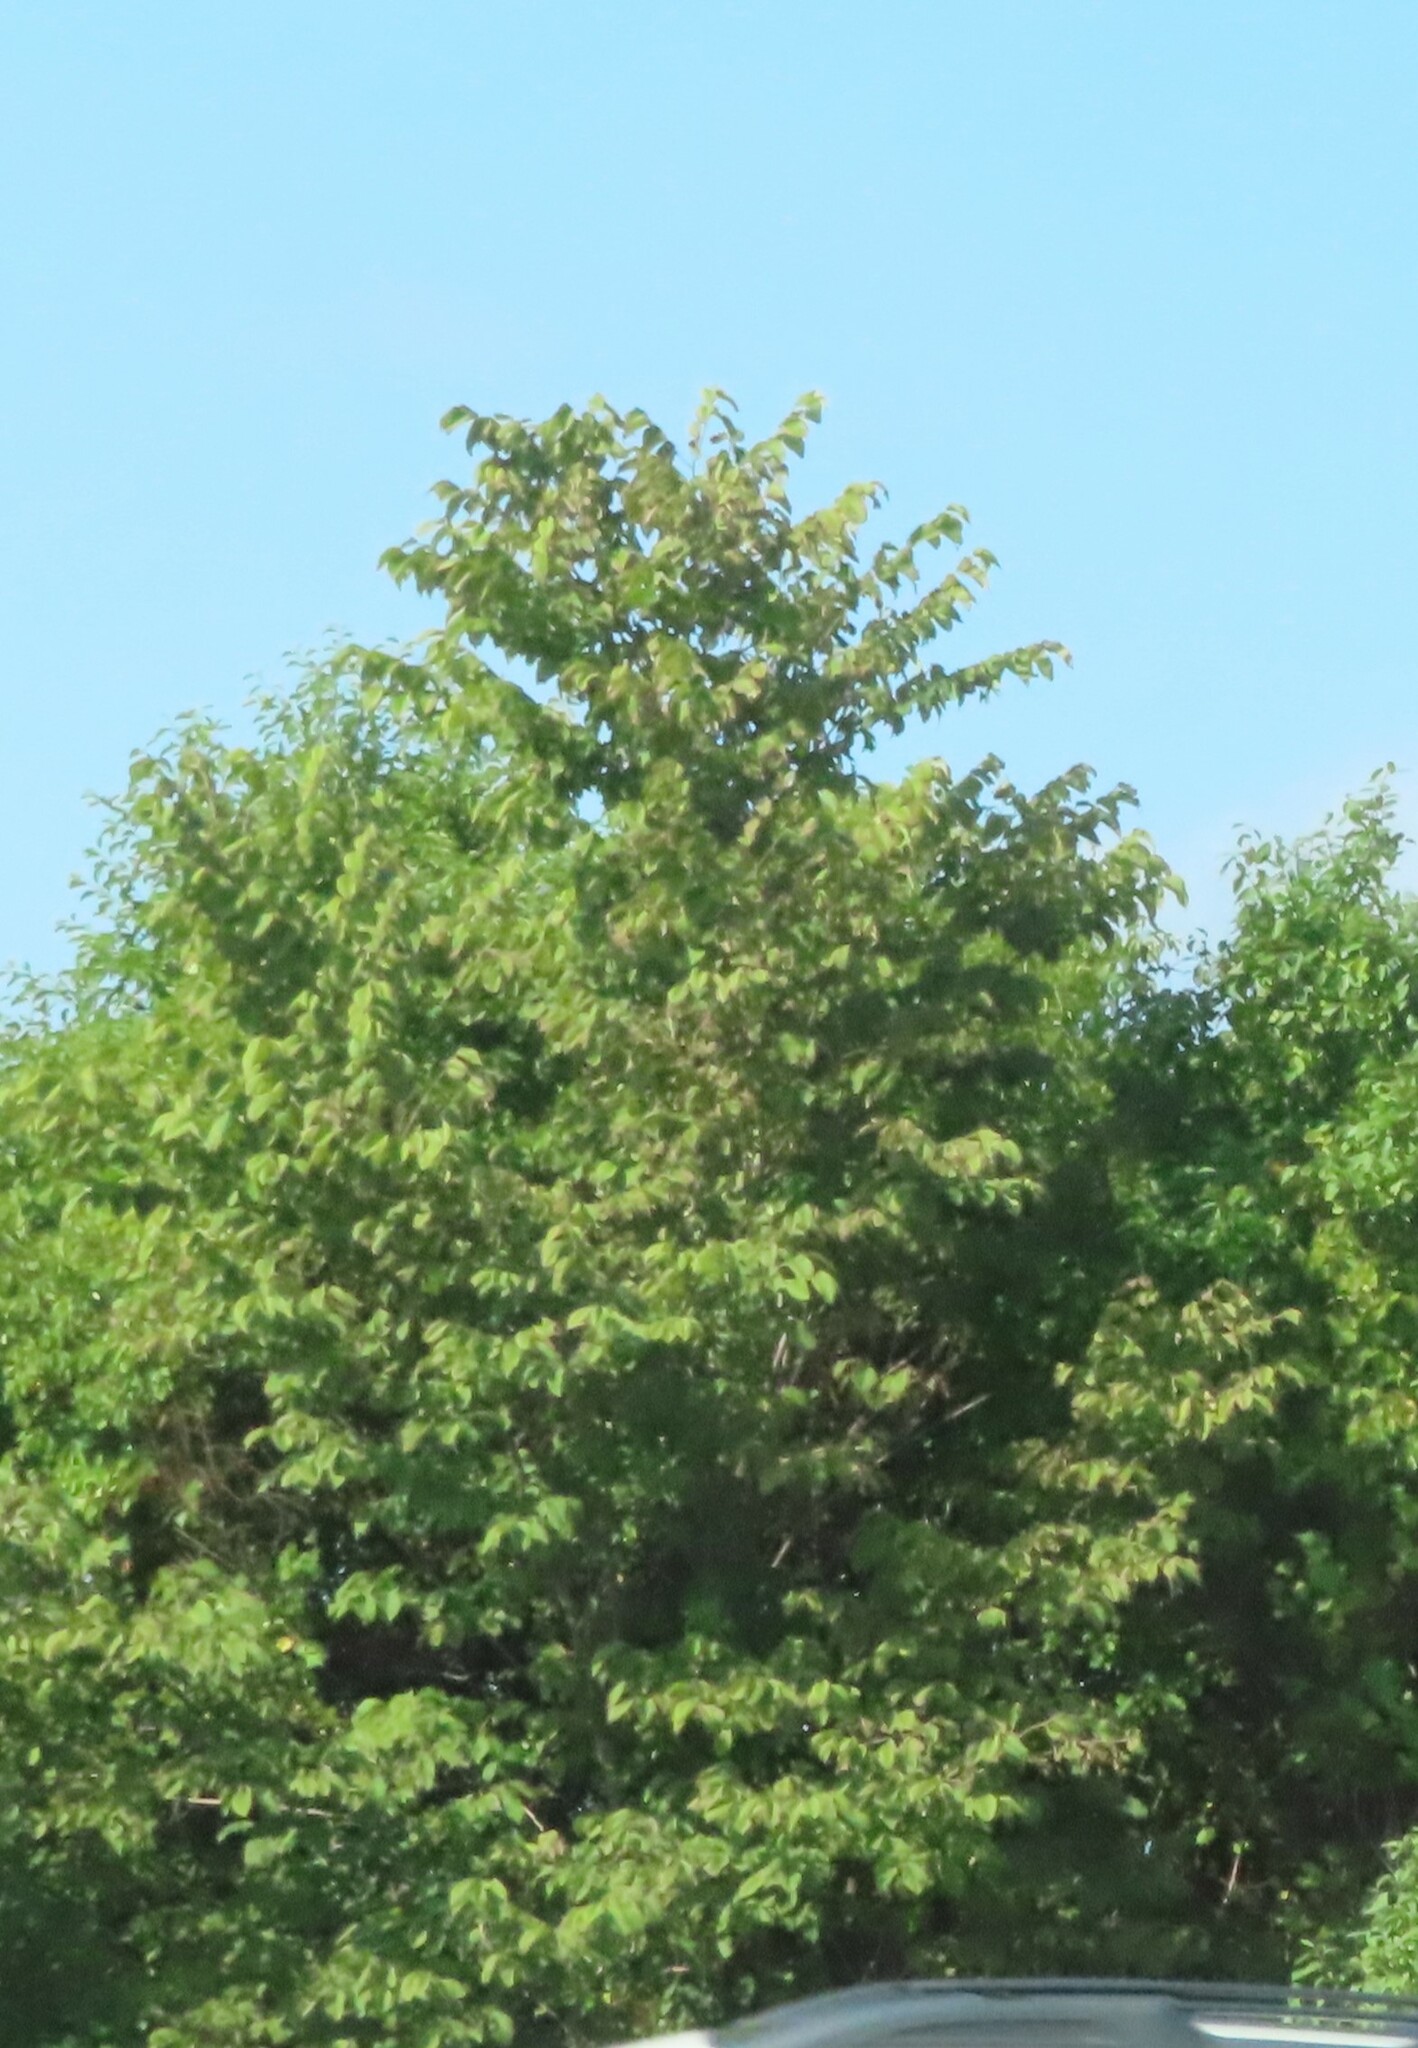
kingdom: Plantae
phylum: Tracheophyta
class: Magnoliopsida
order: Fagales
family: Juglandaceae
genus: Juglans
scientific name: Juglans nigra
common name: Black walnut
